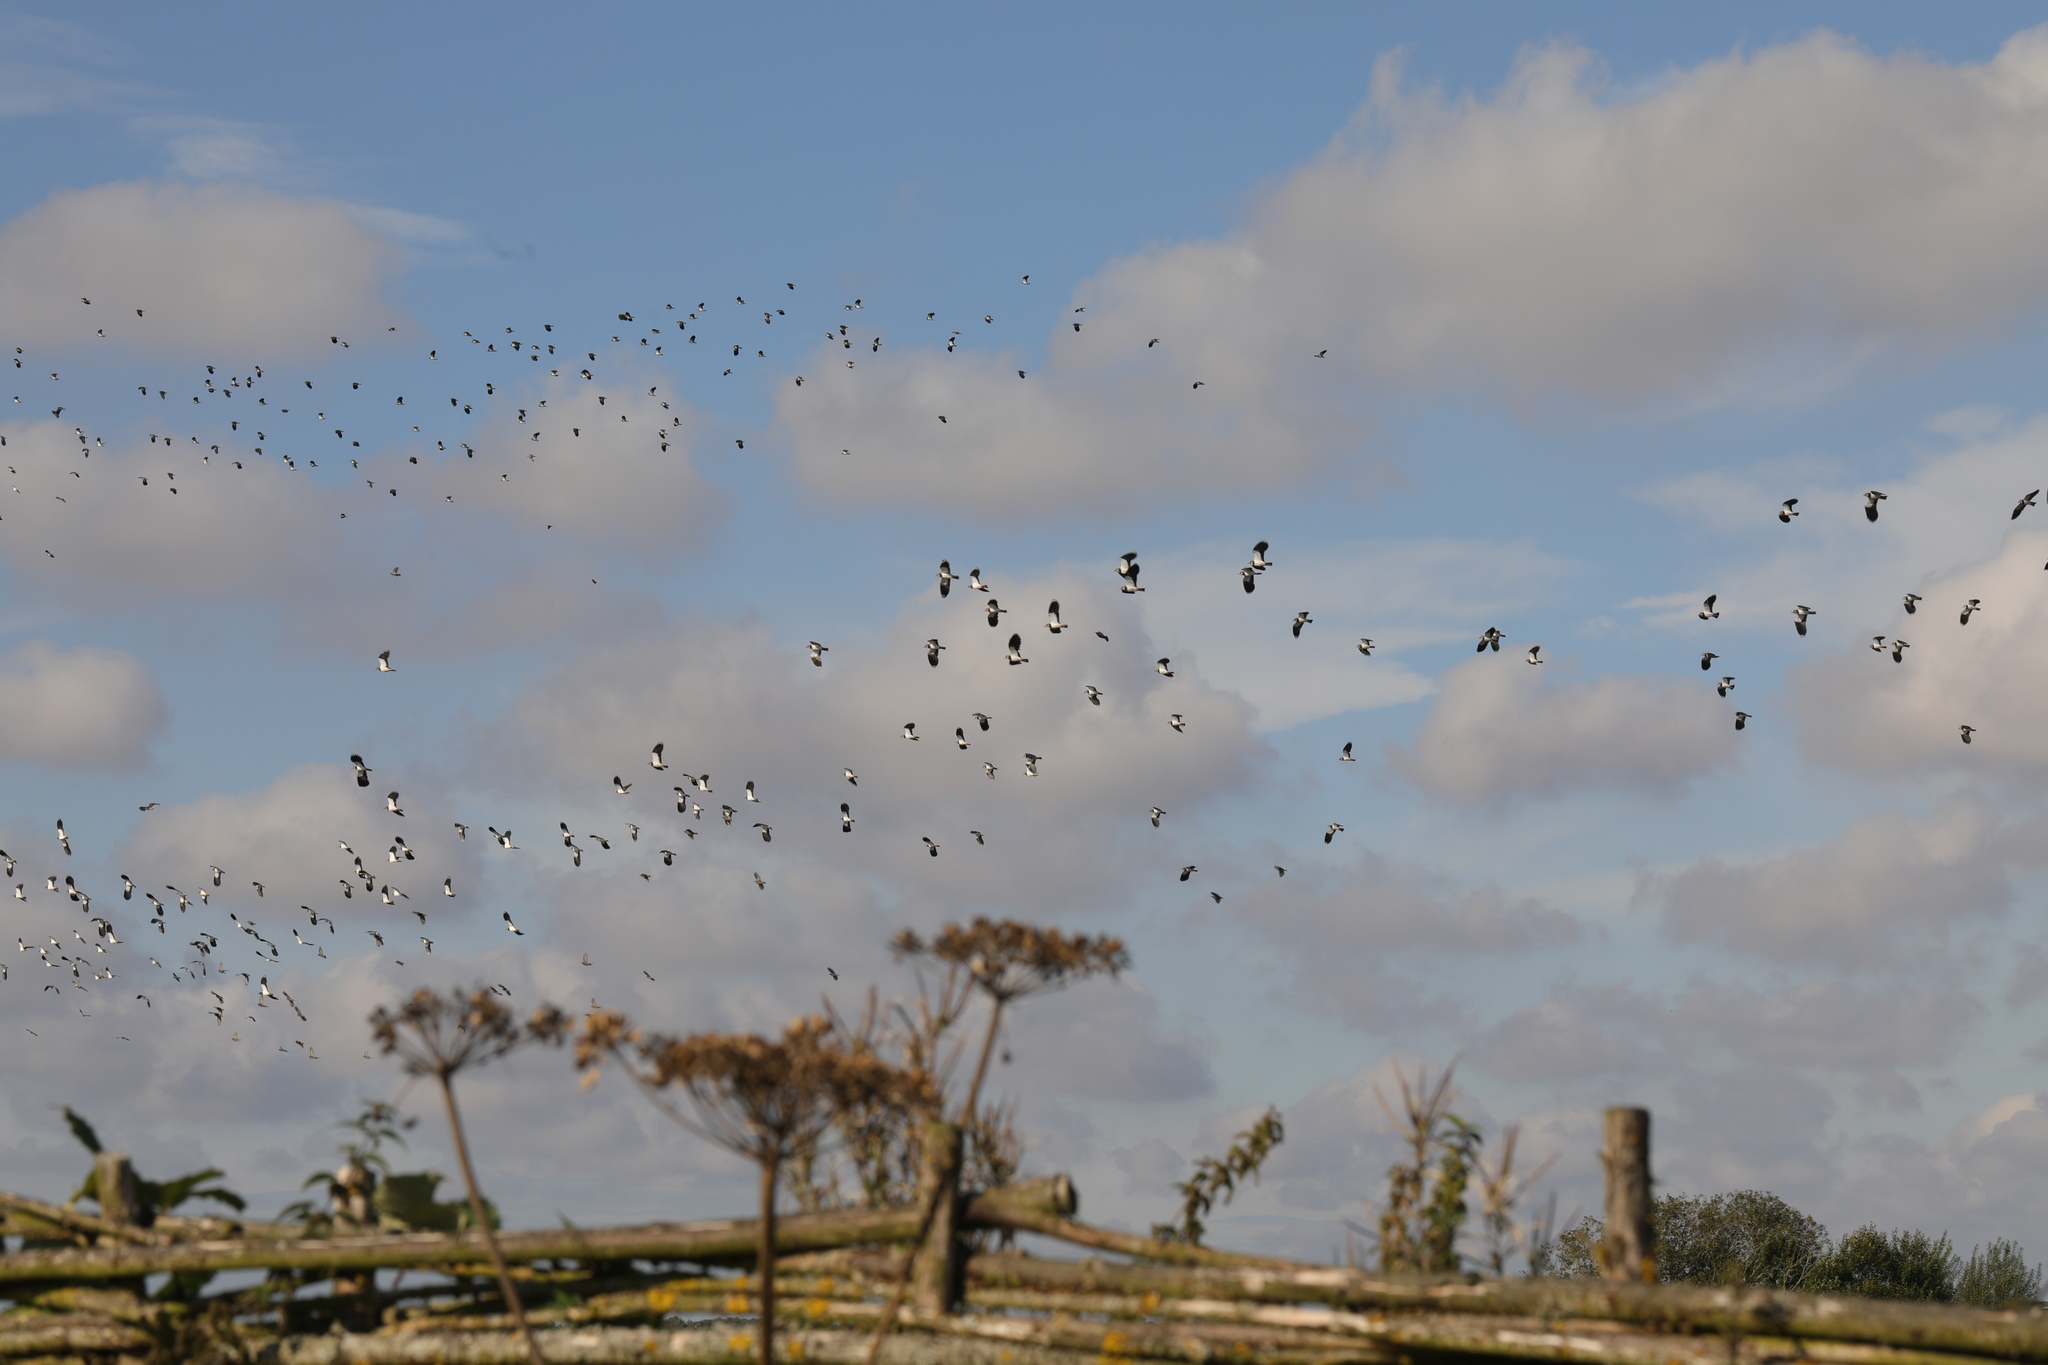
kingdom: Animalia
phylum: Chordata
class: Aves
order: Charadriiformes
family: Charadriidae
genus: Vanellus
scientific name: Vanellus vanellus
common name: Northern lapwing
